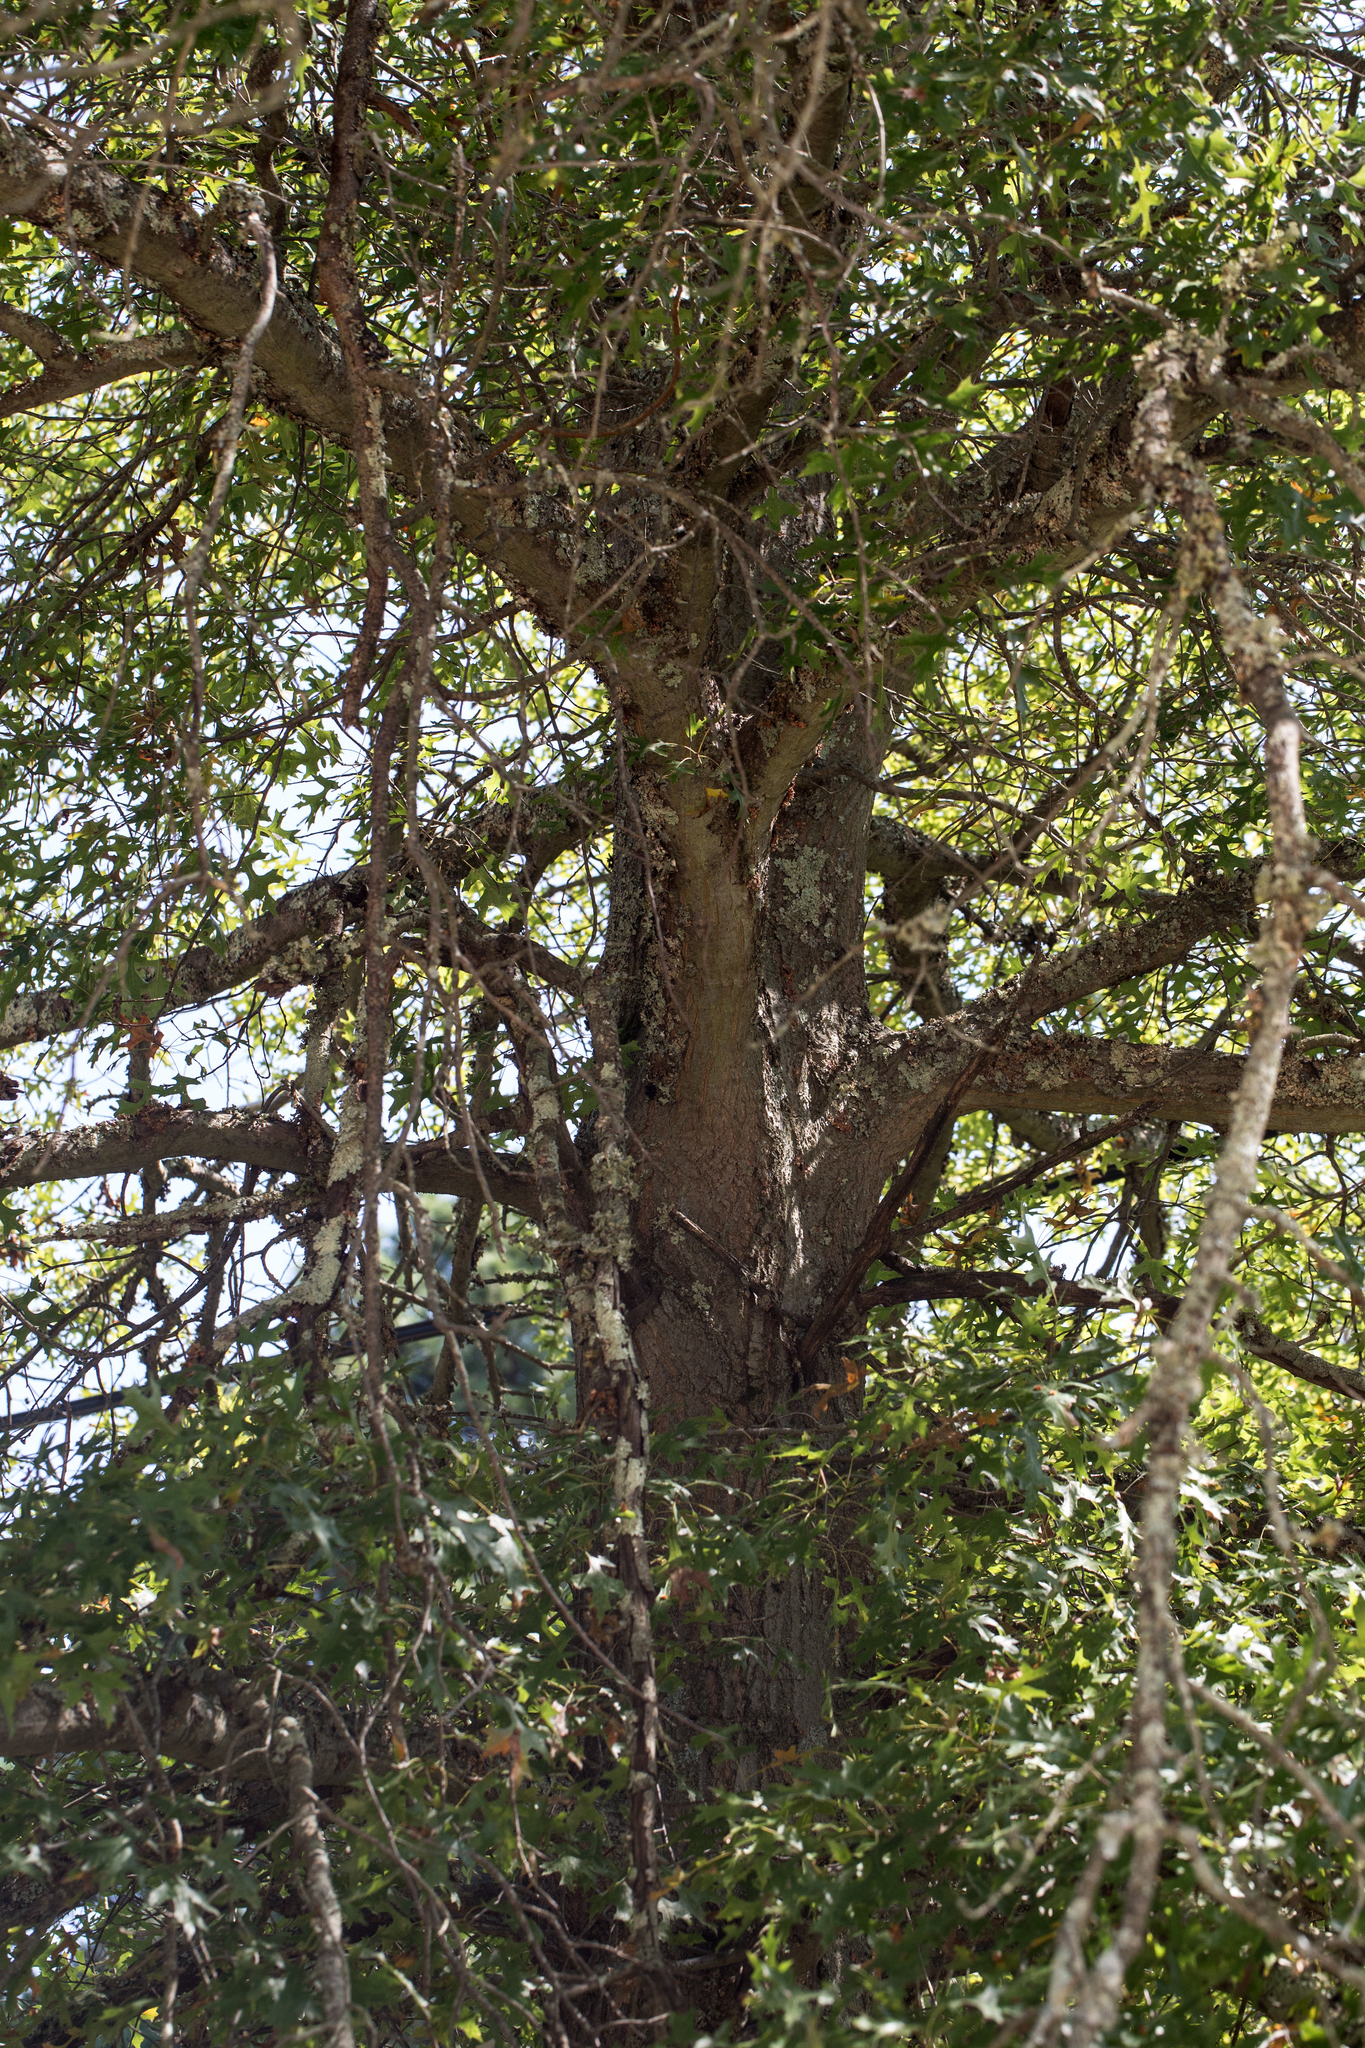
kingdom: Plantae
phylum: Tracheophyta
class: Magnoliopsida
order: Fagales
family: Fagaceae
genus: Quercus
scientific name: Quercus palustris
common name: Pin oak
